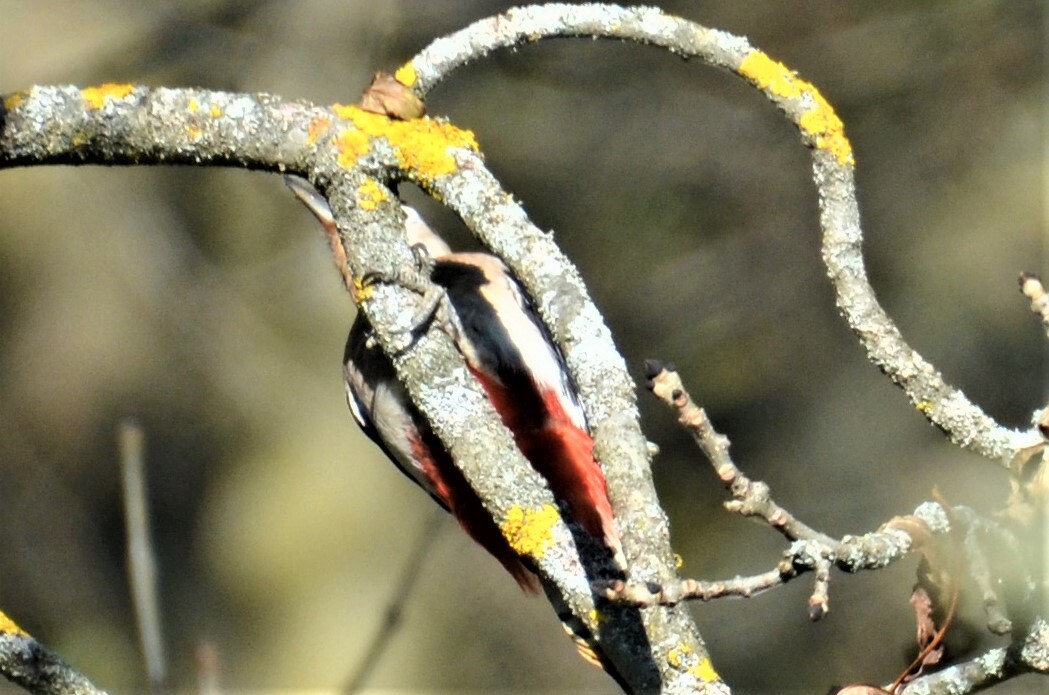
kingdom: Animalia
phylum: Chordata
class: Aves
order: Piciformes
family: Picidae
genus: Dendrocopos
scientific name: Dendrocopos major
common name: Great spotted woodpecker
